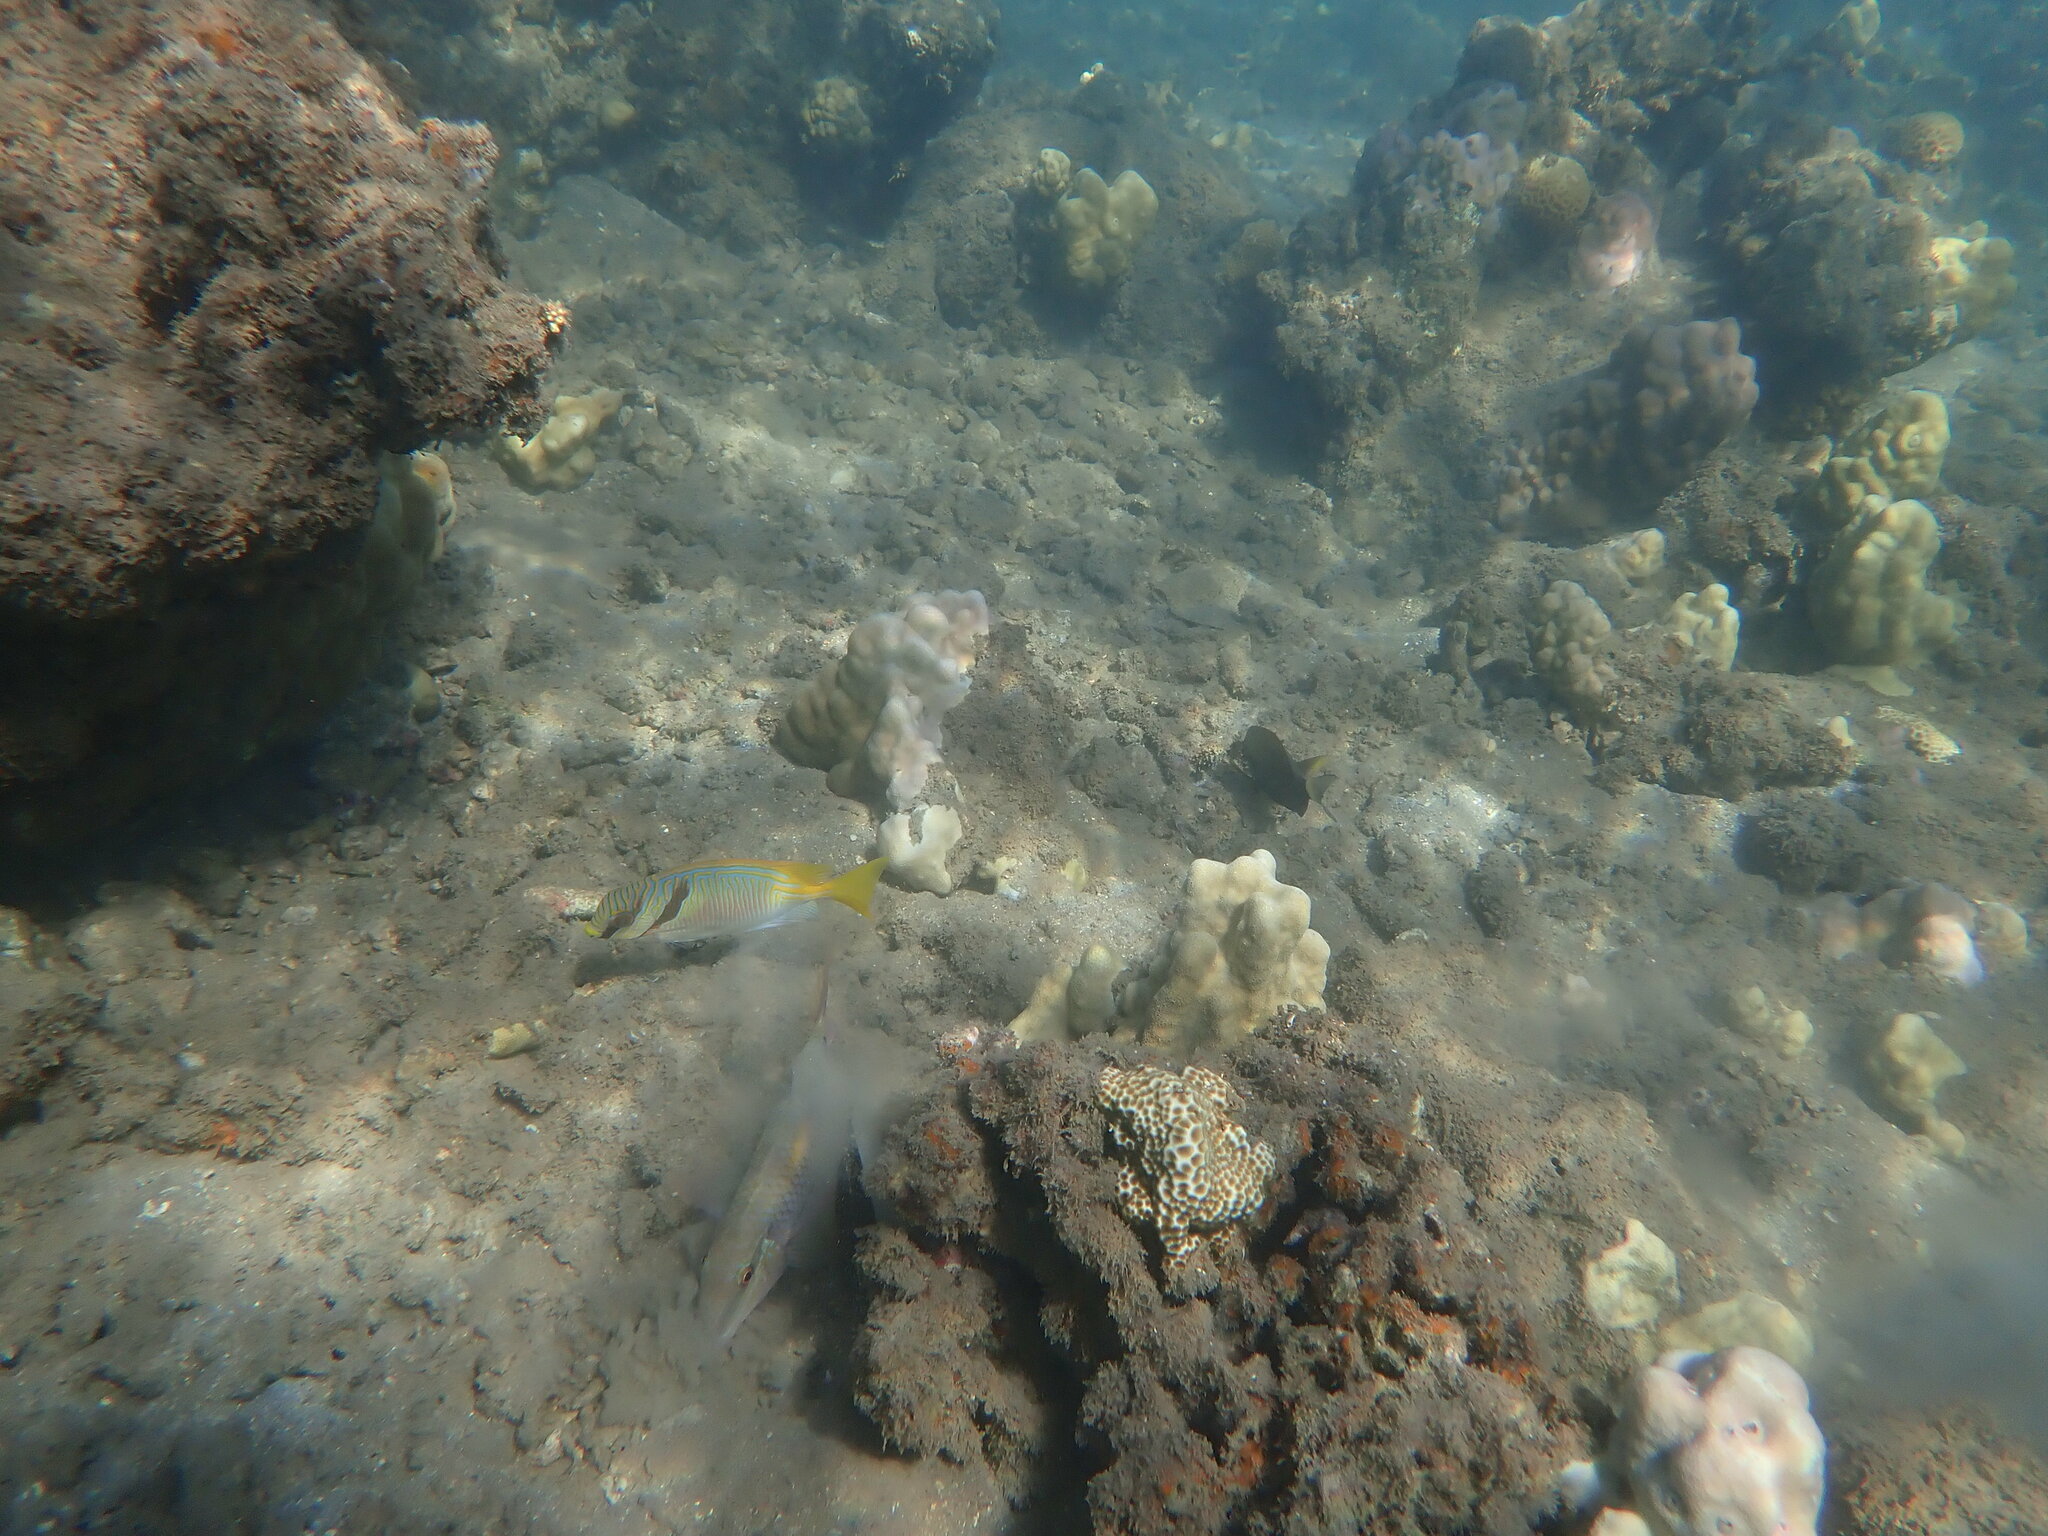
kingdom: Animalia
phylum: Chordata
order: Perciformes
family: Mullidae
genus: Parupeneus
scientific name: Parupeneus indicus
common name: Indian goatfish
